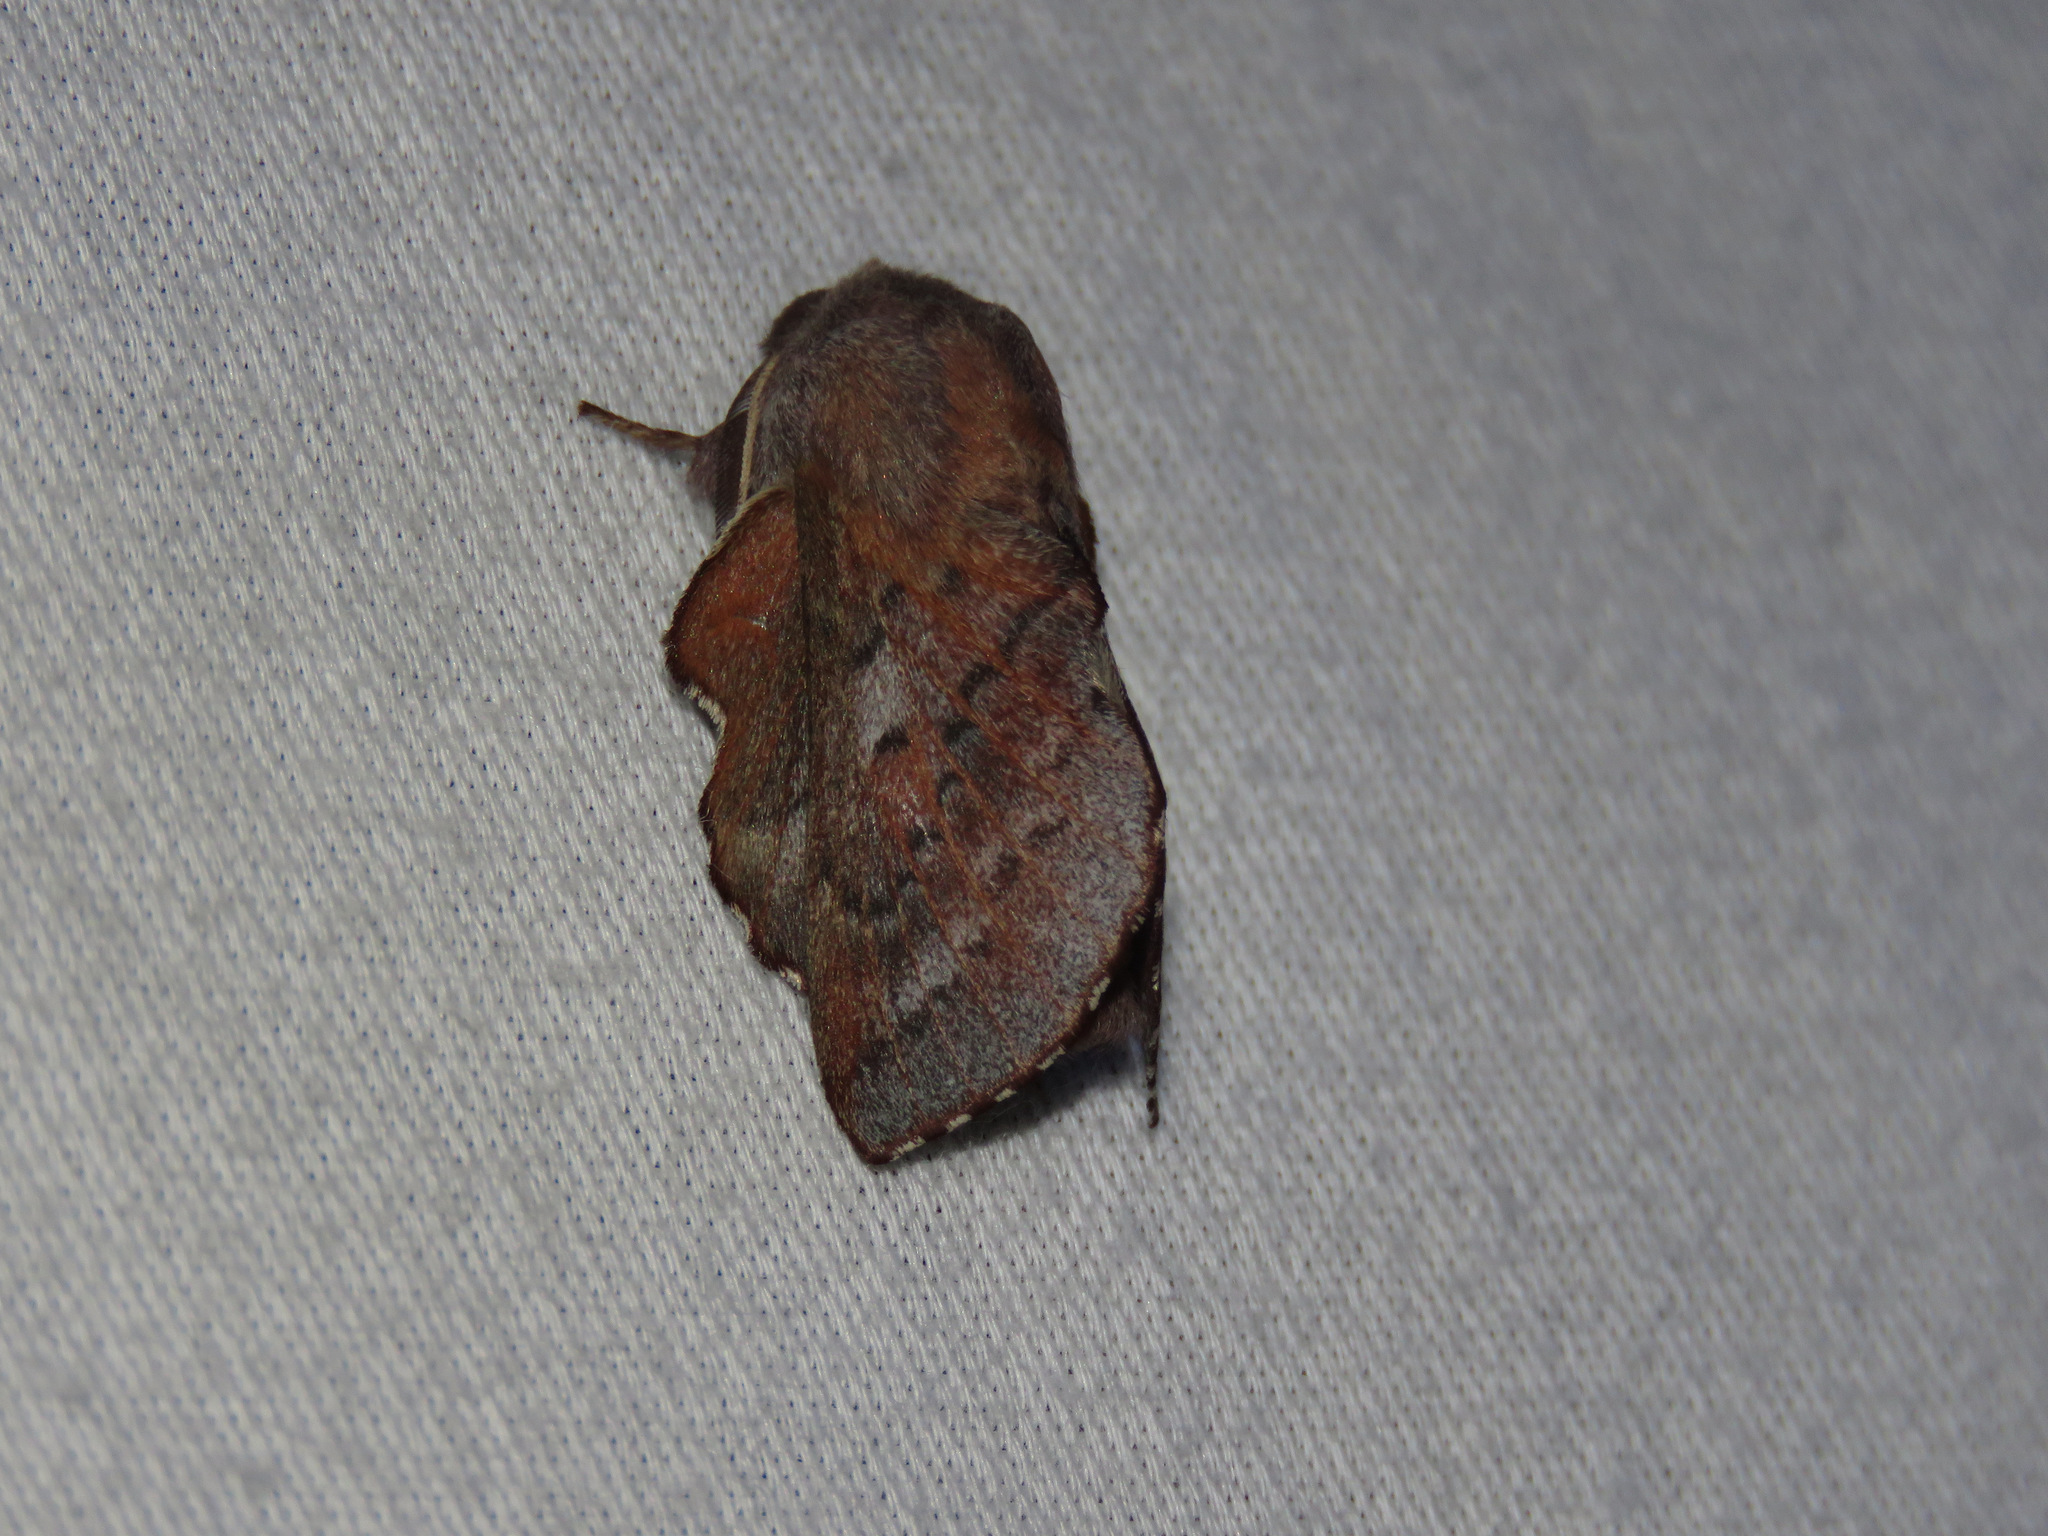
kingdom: Animalia
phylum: Arthropoda
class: Insecta
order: Lepidoptera
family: Lasiocampidae
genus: Phyllodesma
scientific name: Phyllodesma americana
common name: American lappet moth
